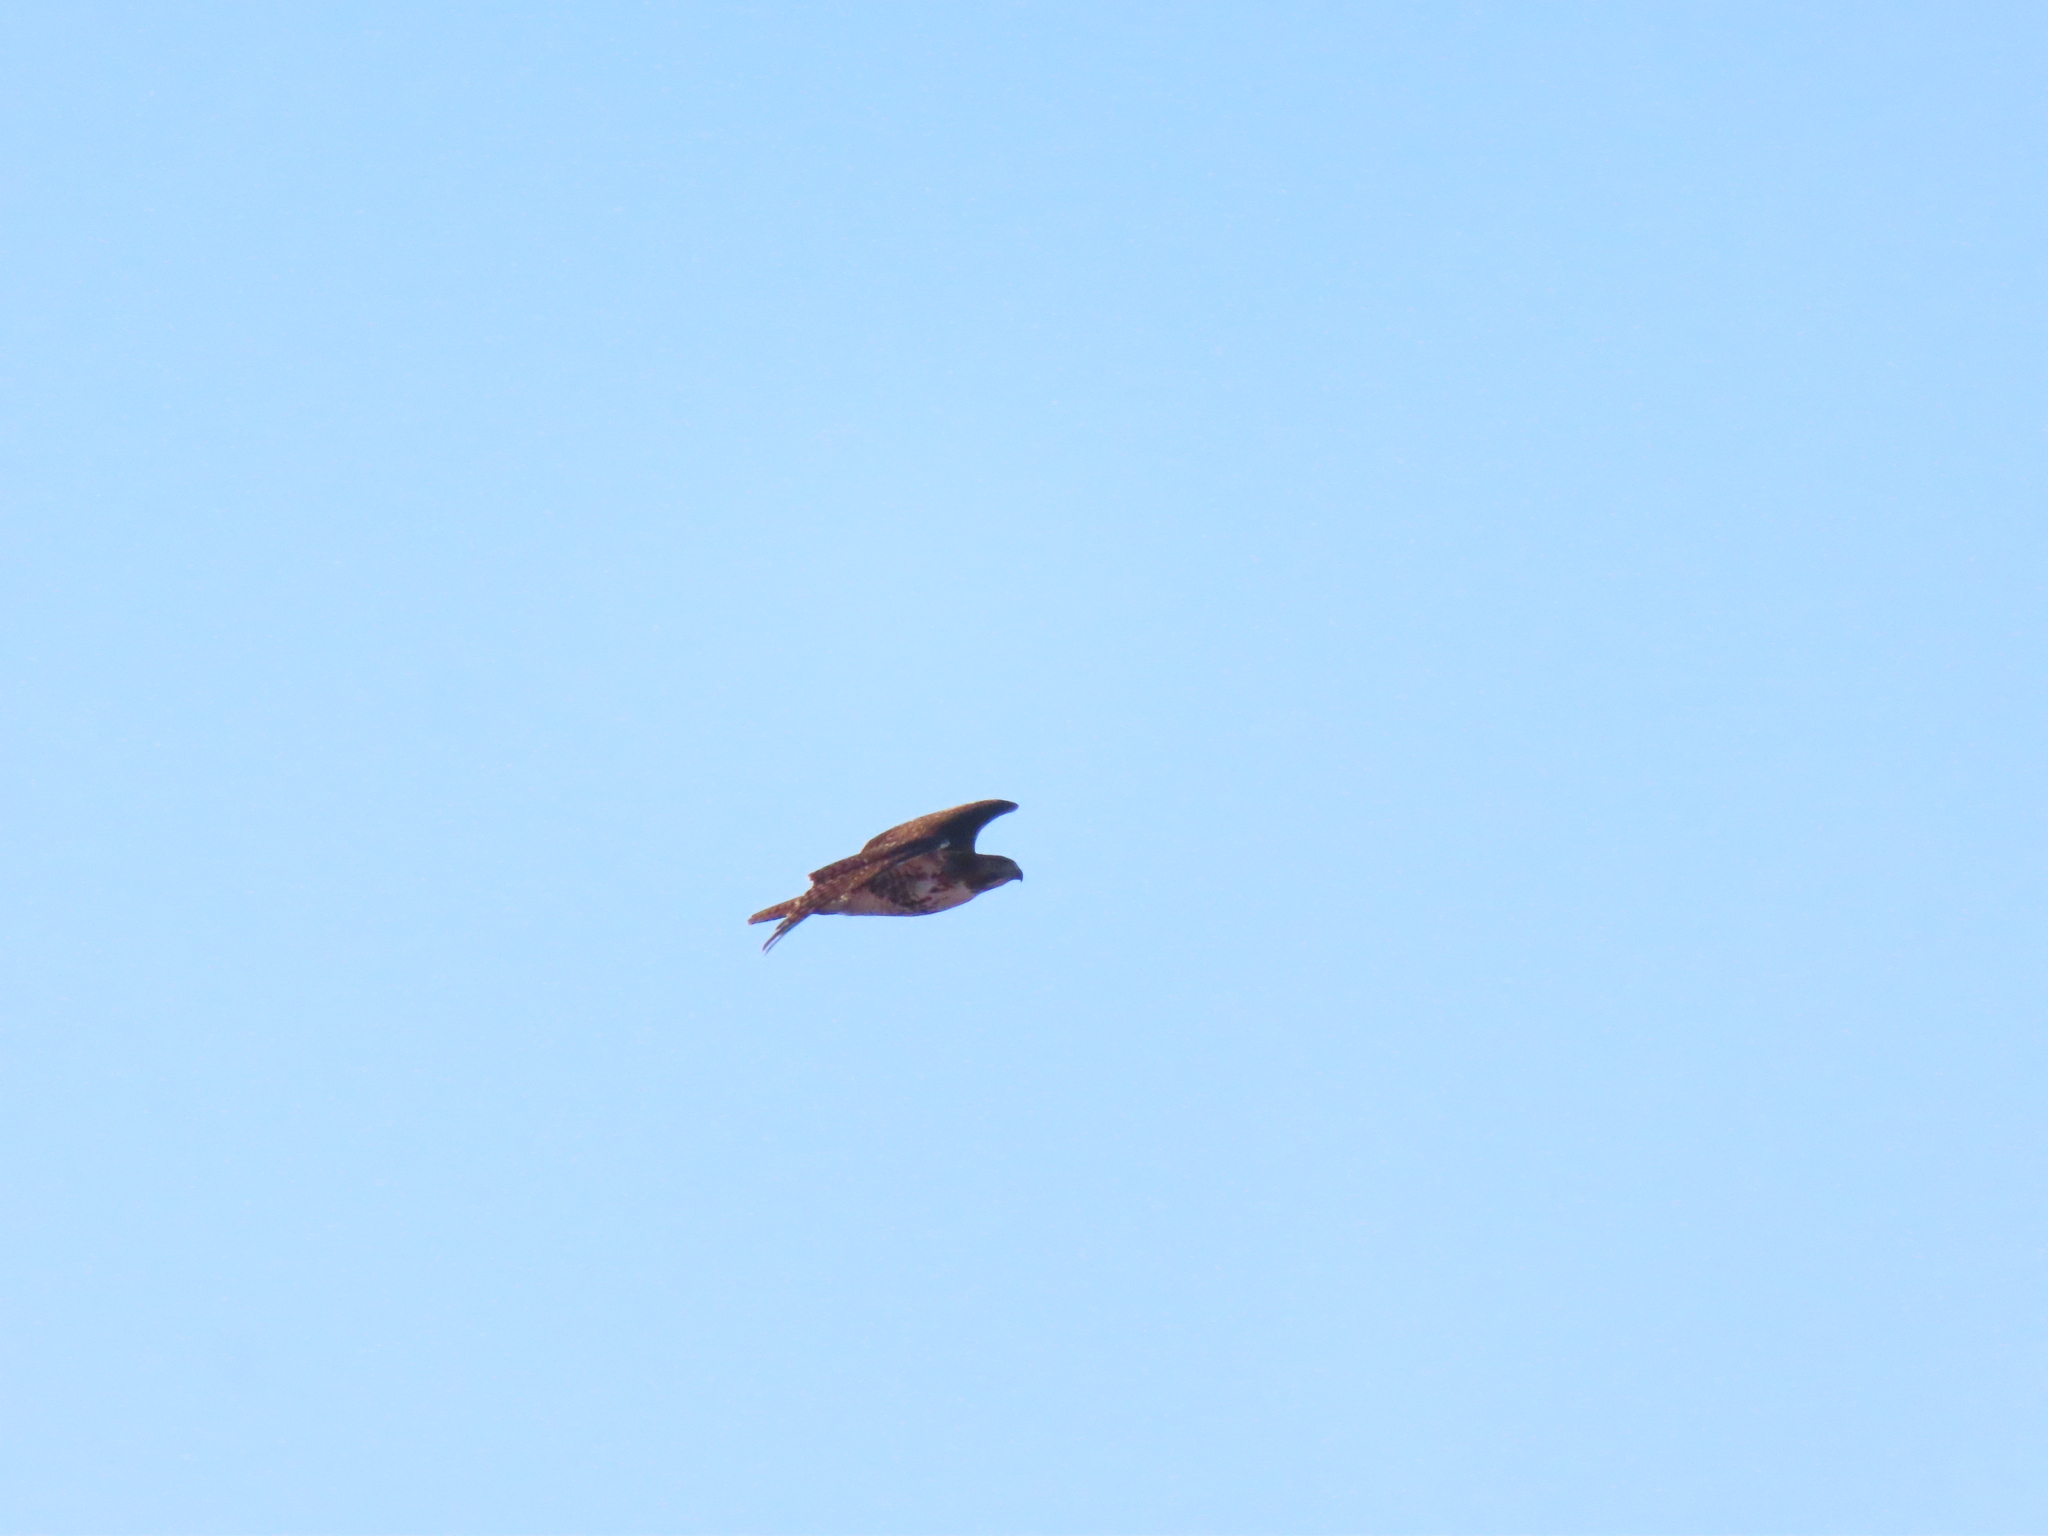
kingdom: Animalia
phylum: Chordata
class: Aves
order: Accipitriformes
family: Accipitridae
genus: Buteo
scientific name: Buteo jamaicensis
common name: Red-tailed hawk
